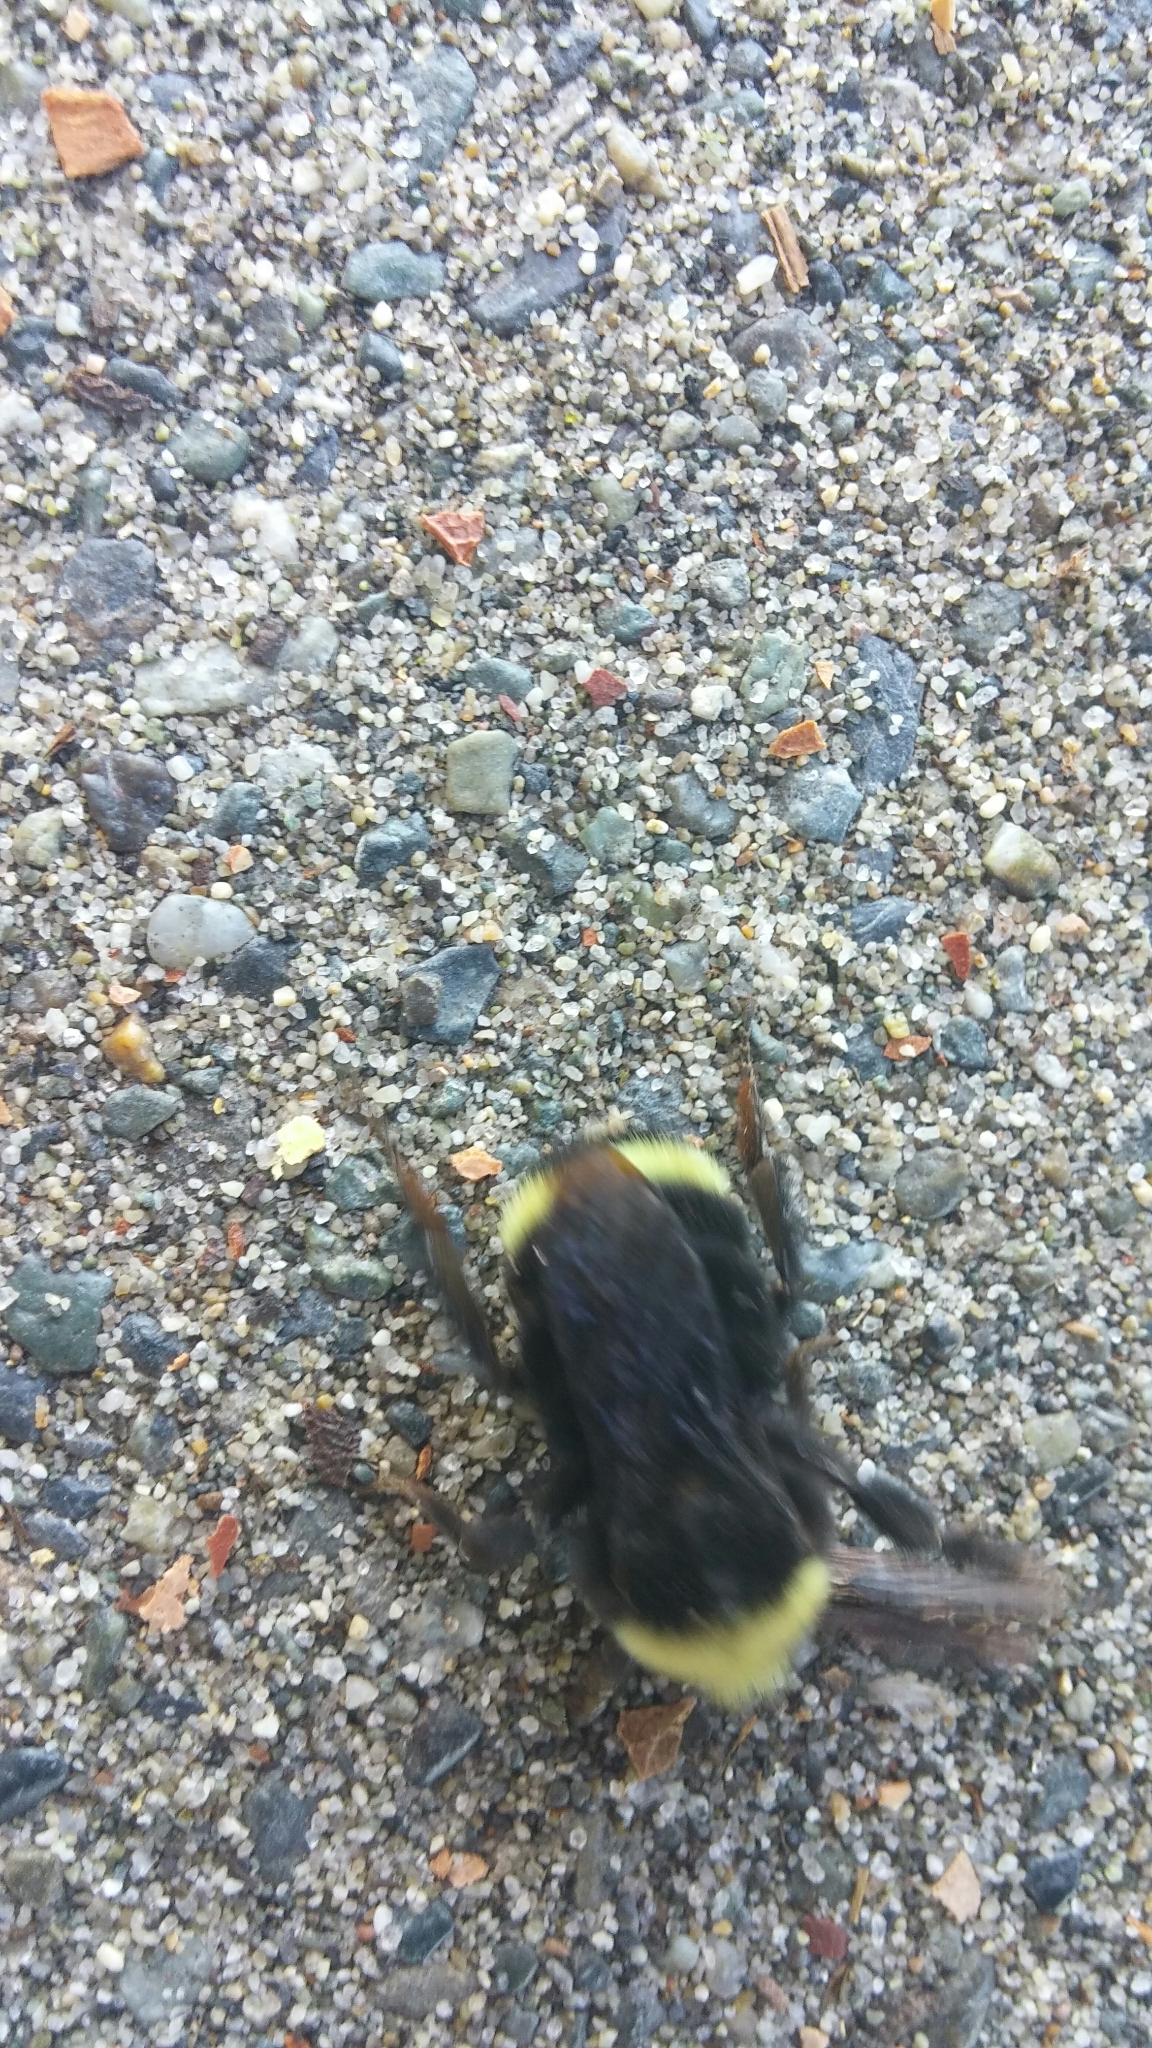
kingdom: Animalia
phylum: Arthropoda
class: Insecta
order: Hymenoptera
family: Apidae
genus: Bombus
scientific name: Bombus vosnesenskii
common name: Vosnesensky bumble bee
